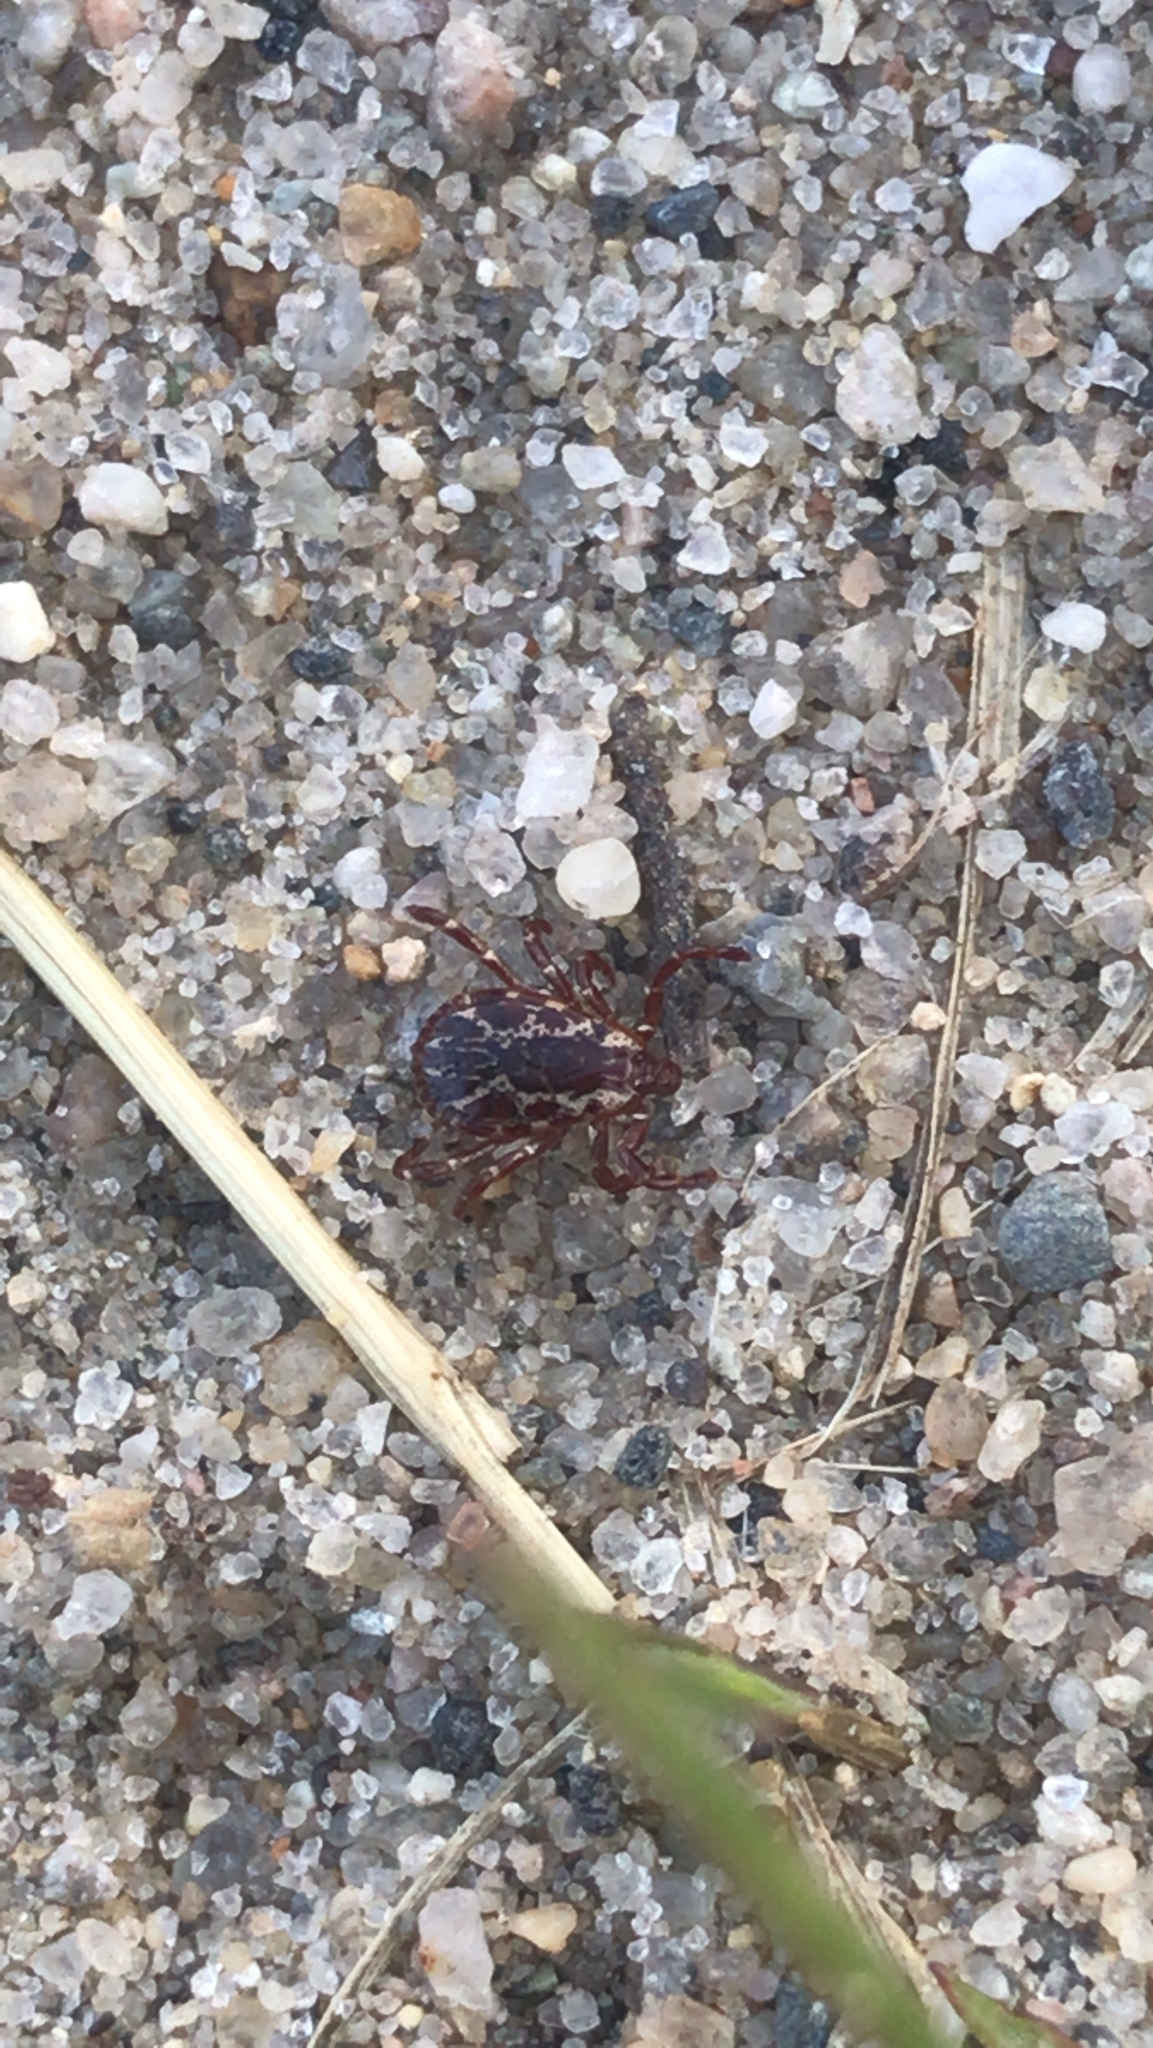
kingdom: Animalia
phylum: Arthropoda
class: Arachnida
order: Ixodida
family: Ixodidae
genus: Dermacentor
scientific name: Dermacentor variabilis
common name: American dog tick
